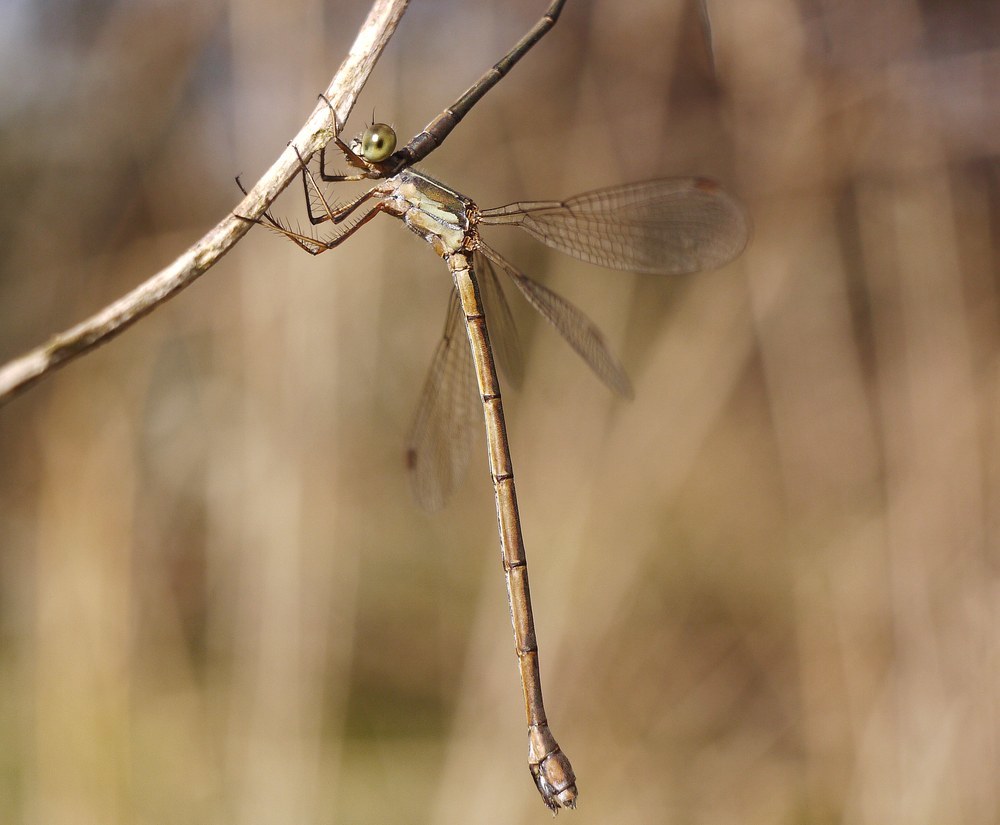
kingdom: Animalia
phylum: Arthropoda
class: Insecta
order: Odonata
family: Lestidae
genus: Chalcolestes
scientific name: Chalcolestes parvidens
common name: Eastern willow spreadwing
